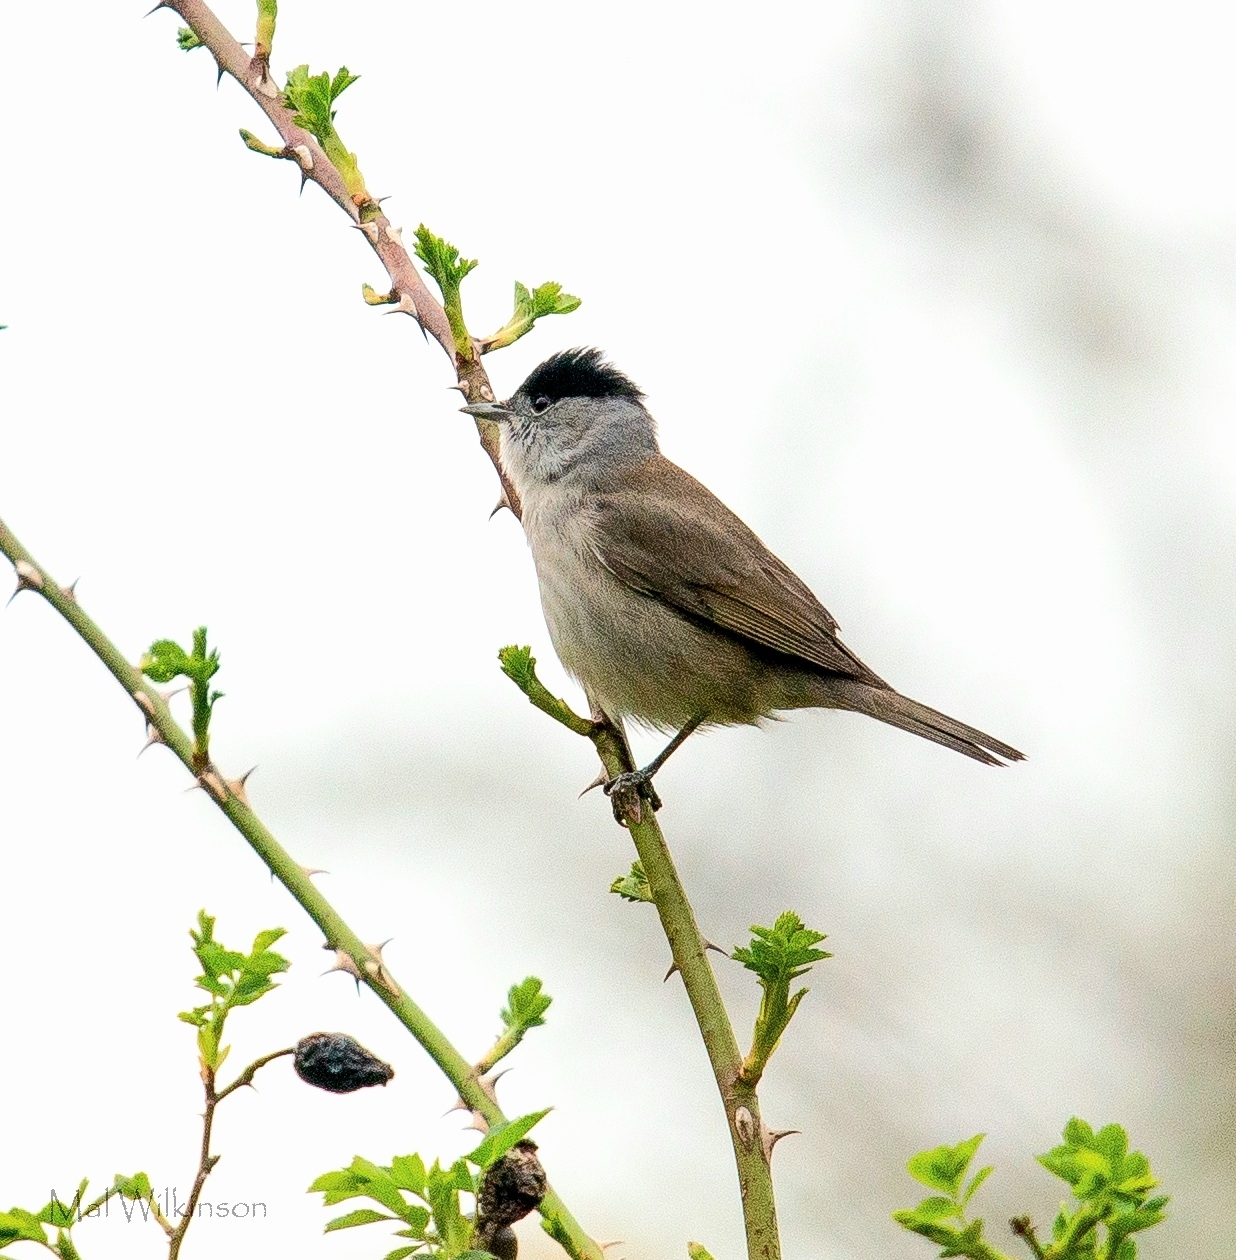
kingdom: Animalia
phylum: Chordata
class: Aves
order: Passeriformes
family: Sylviidae
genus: Sylvia
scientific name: Sylvia atricapilla
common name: Eurasian blackcap
